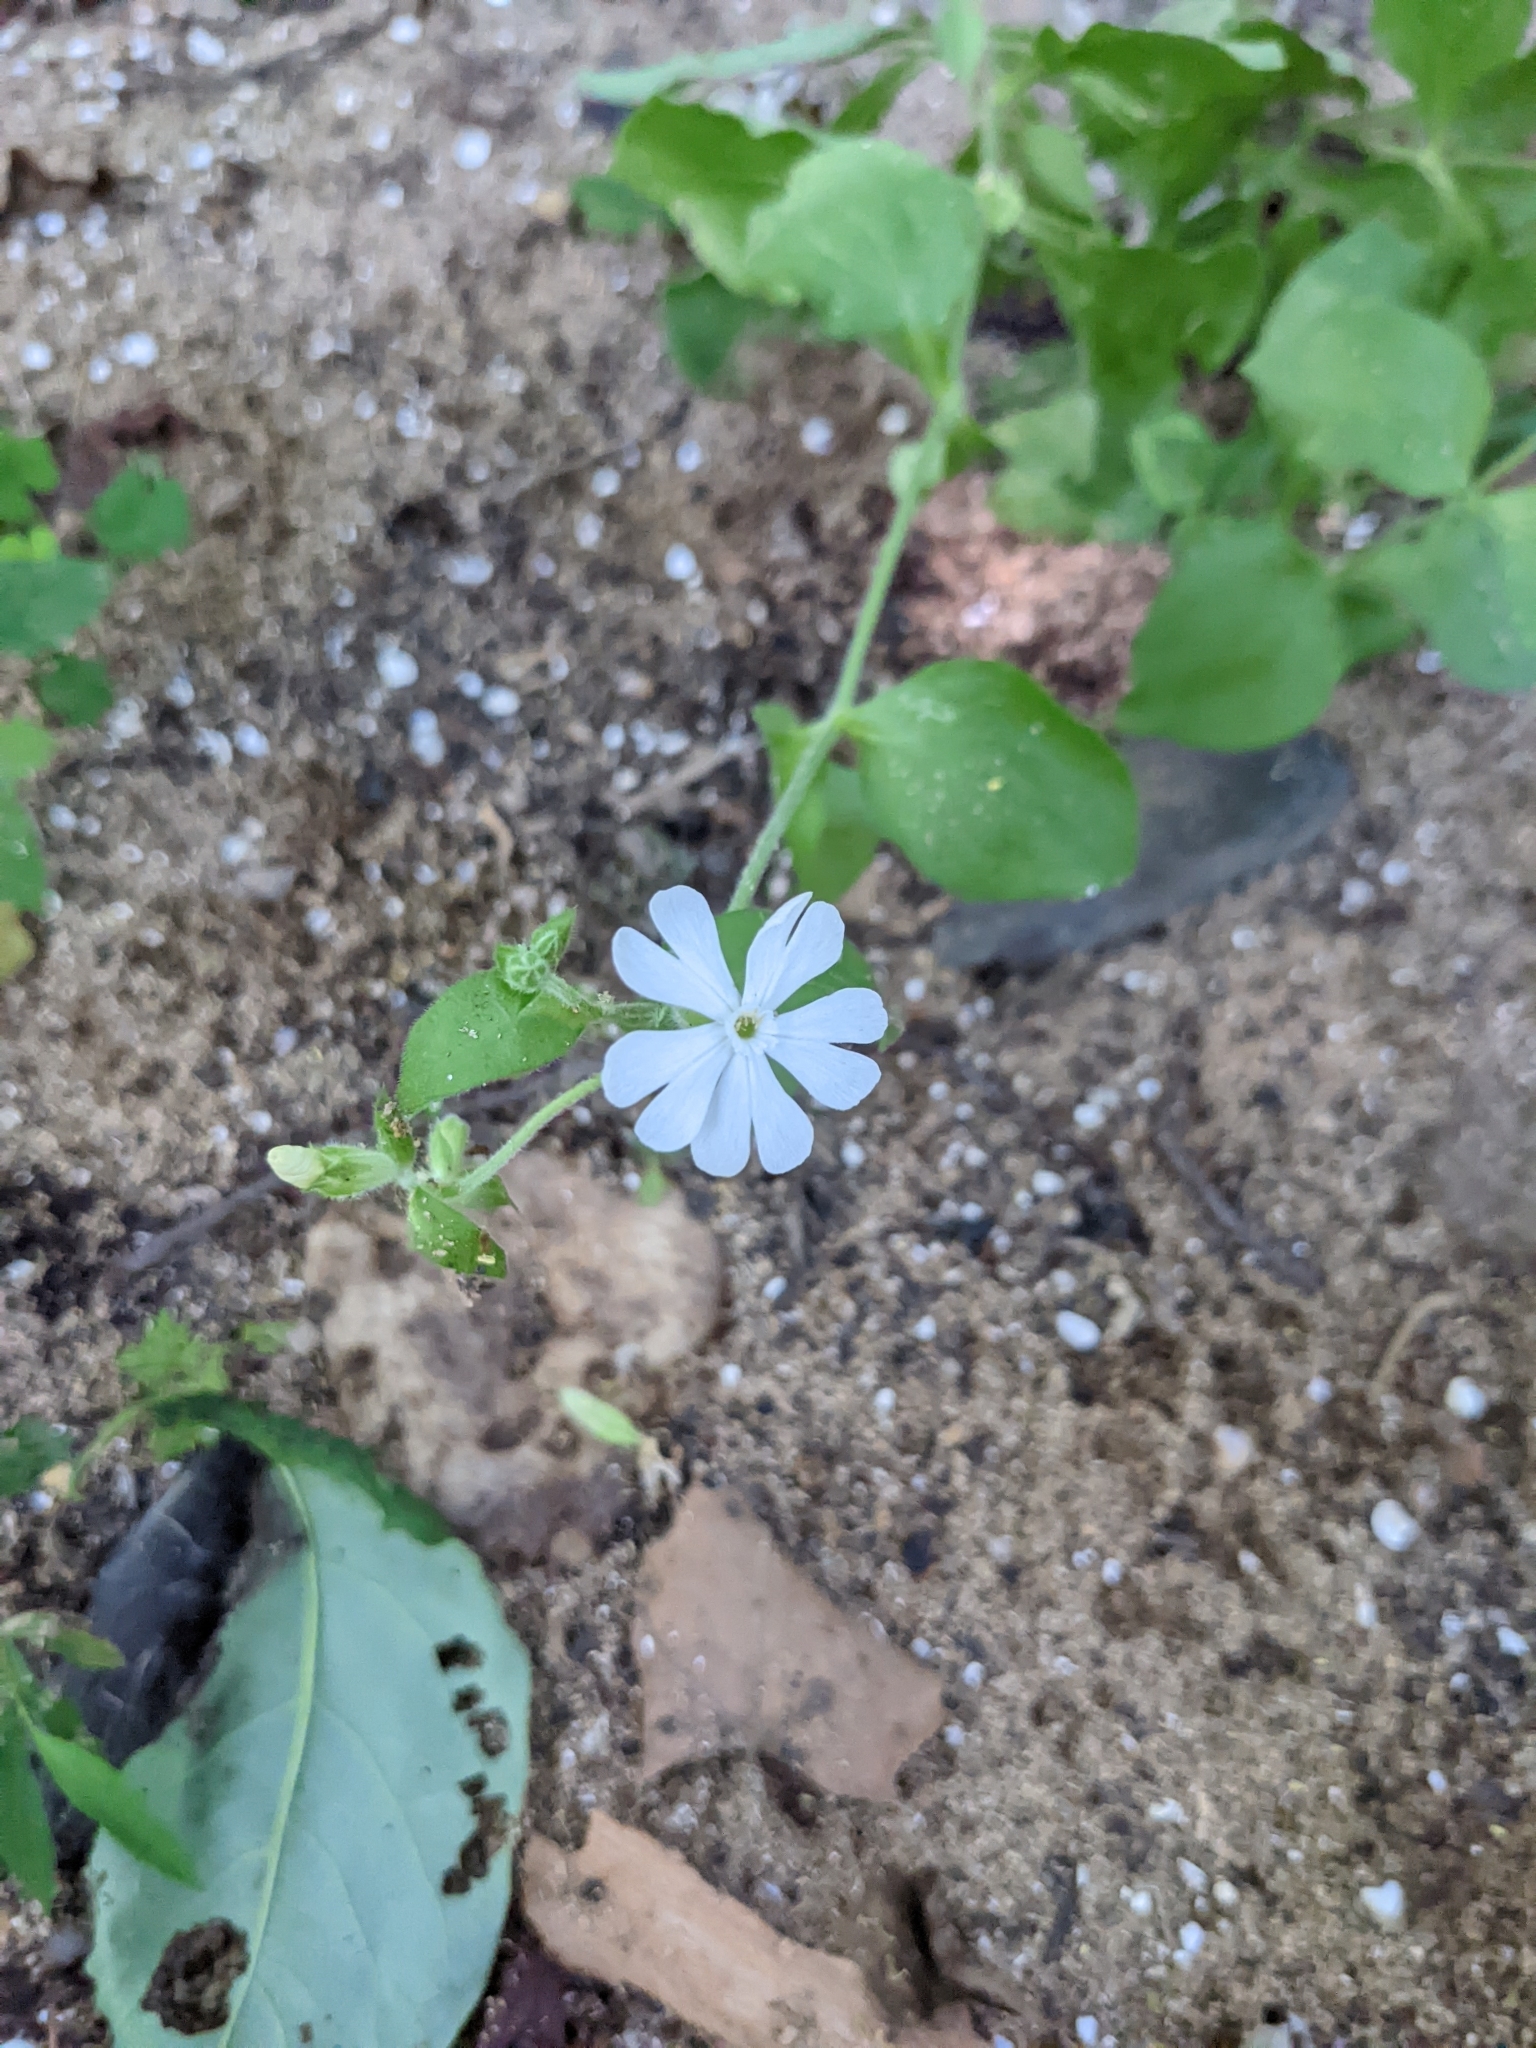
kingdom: Plantae
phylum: Tracheophyta
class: Magnoliopsida
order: Caryophyllales
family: Caryophyllaceae
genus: Silene
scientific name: Silene latifolia
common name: White campion
